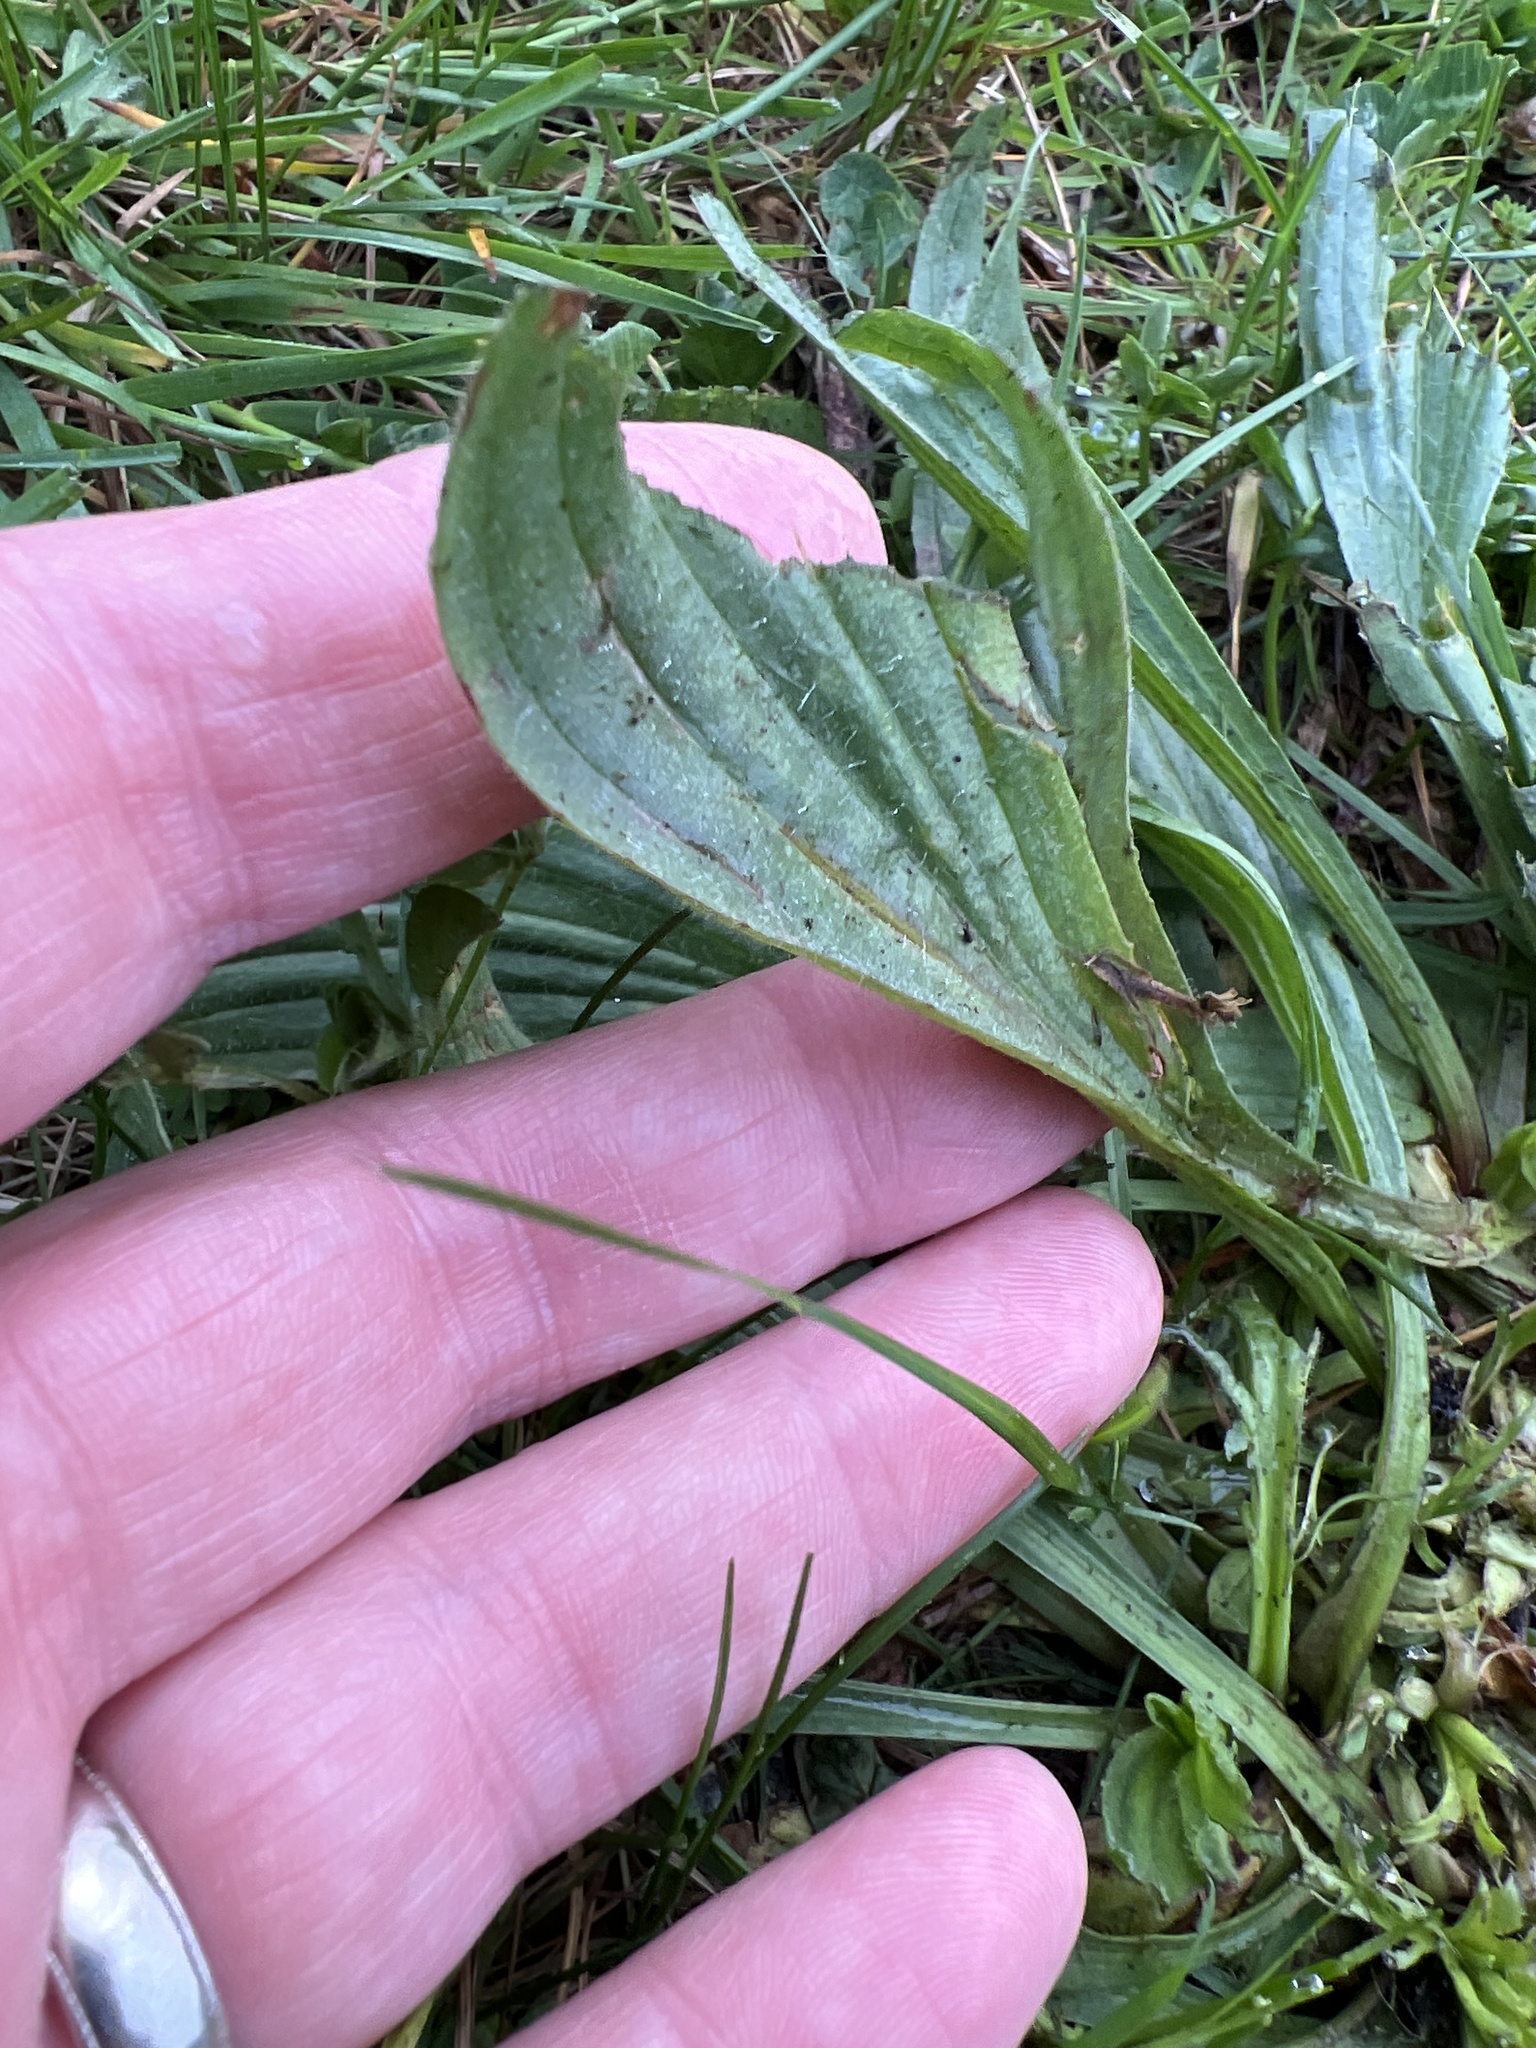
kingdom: Plantae
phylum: Tracheophyta
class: Magnoliopsida
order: Lamiales
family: Plantaginaceae
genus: Plantago
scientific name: Plantago lanceolata
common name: Ribwort plantain
